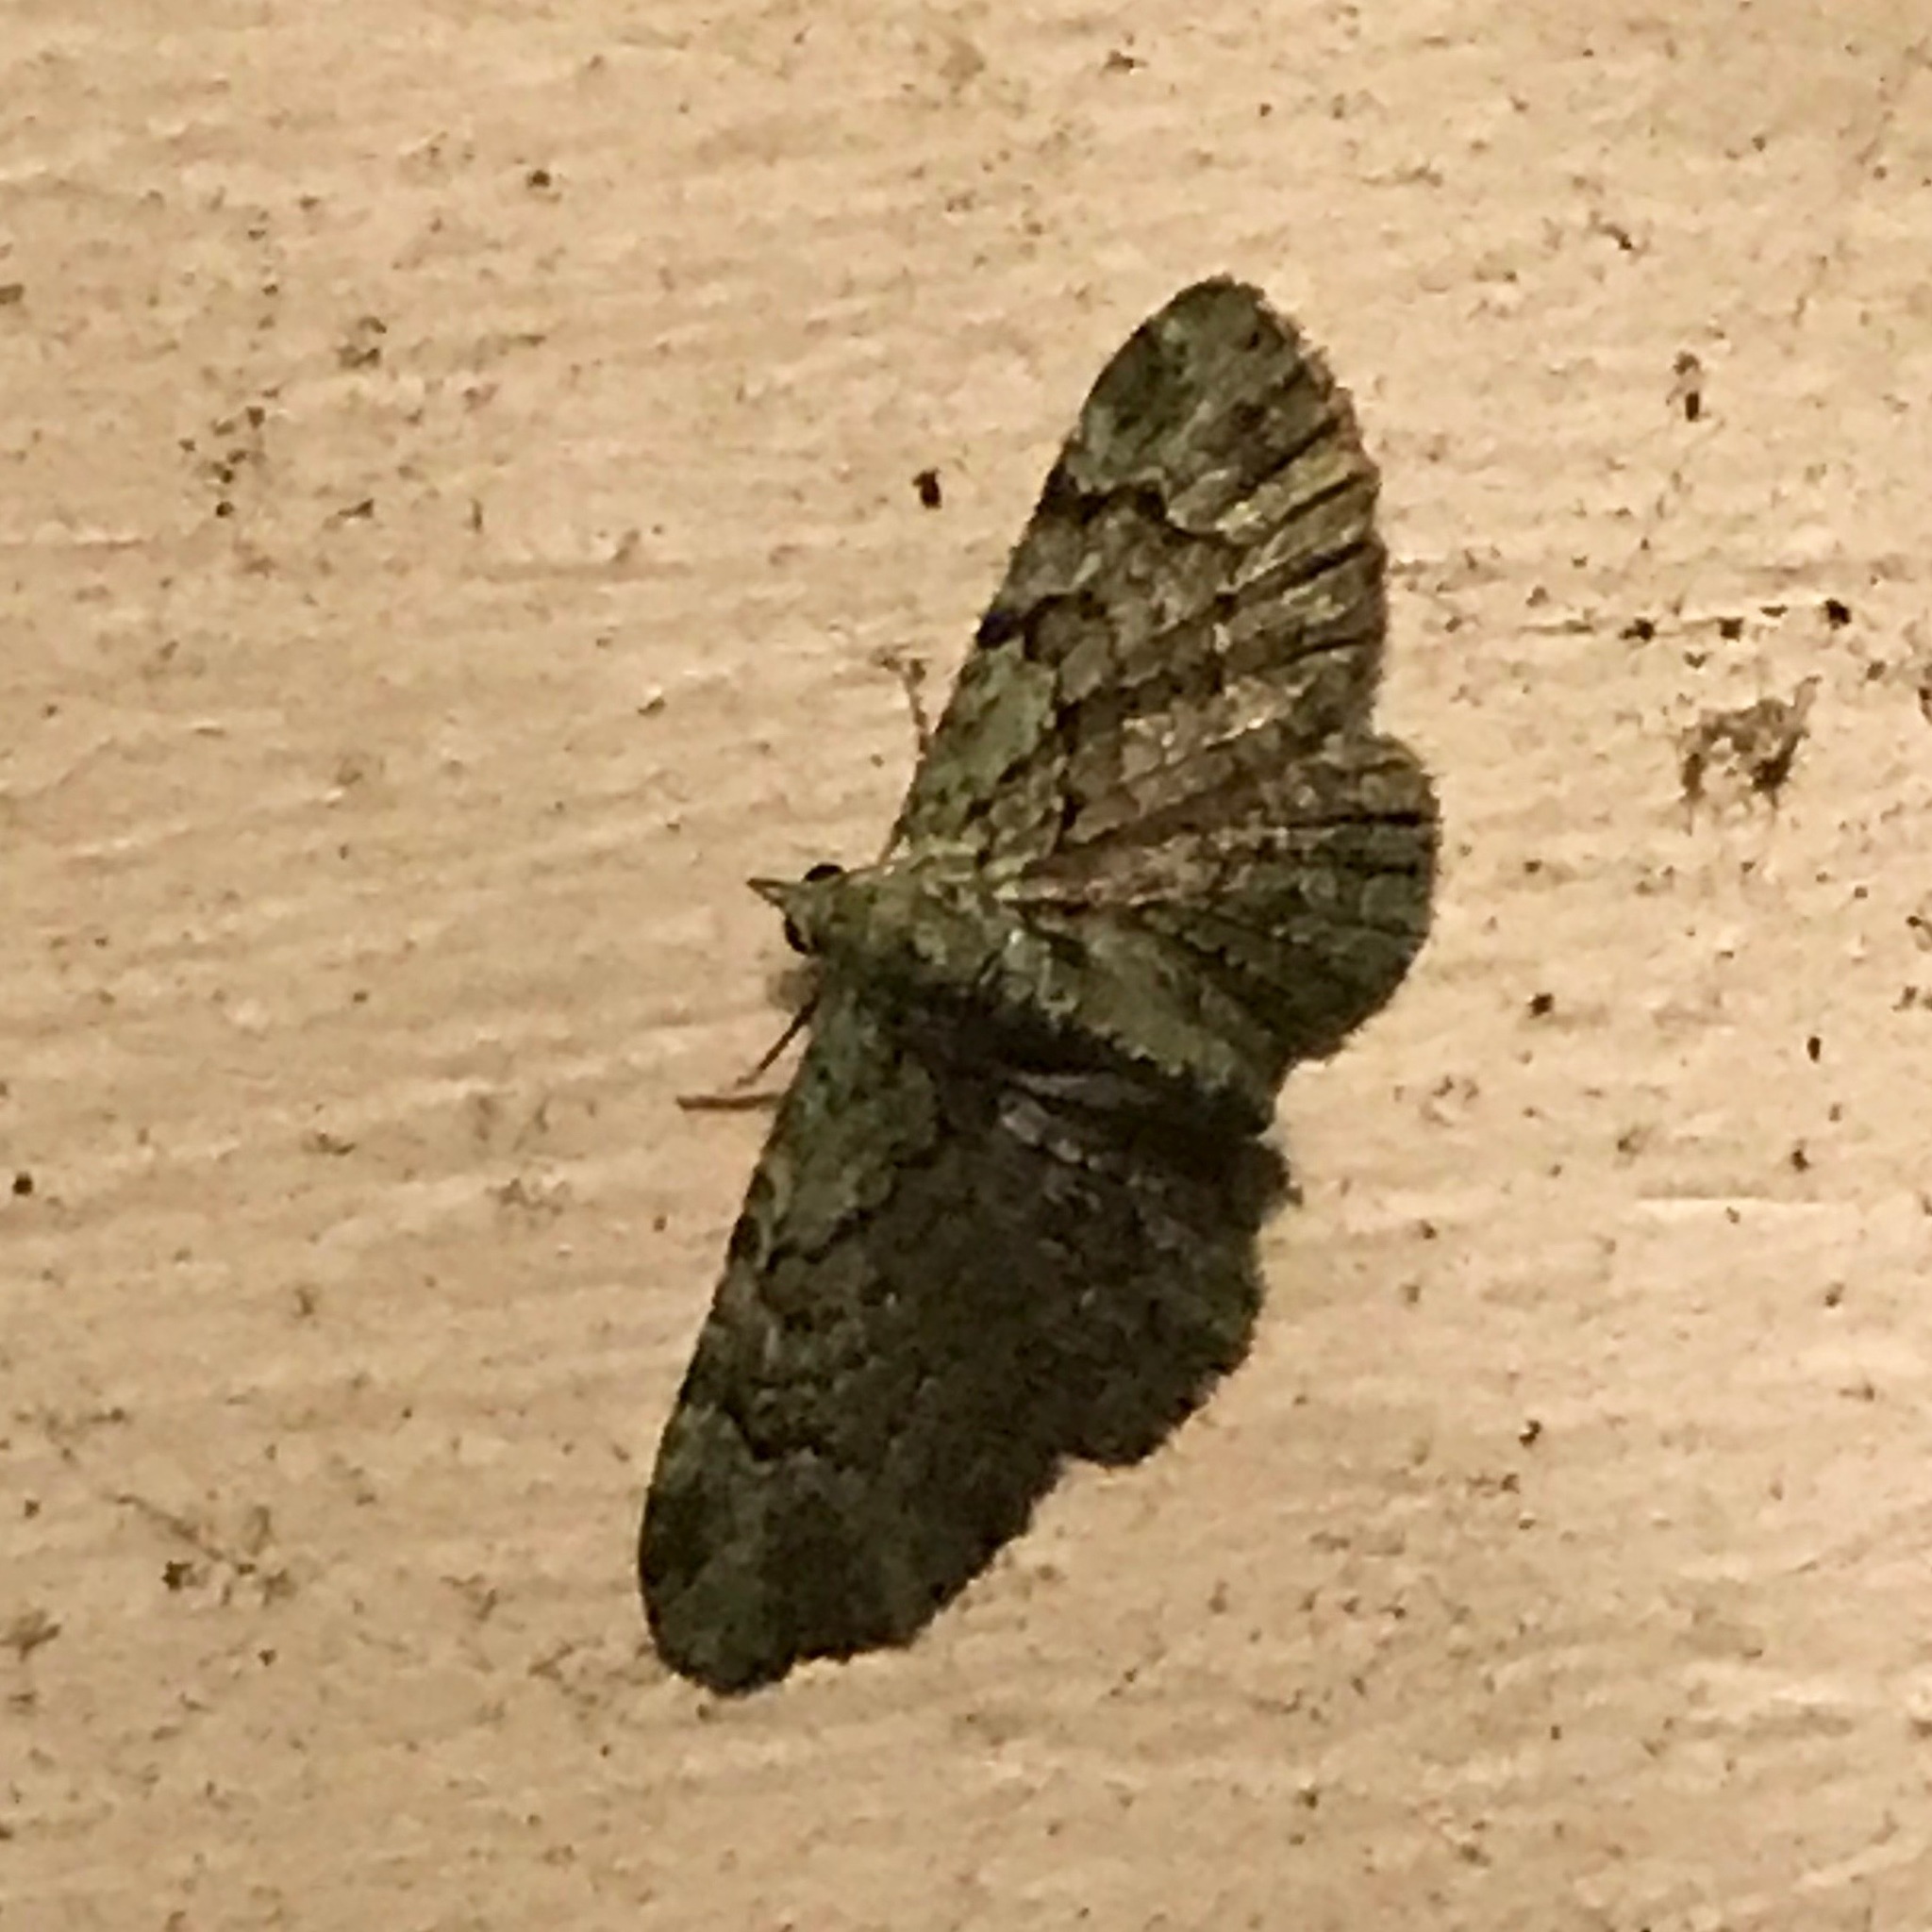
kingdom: Animalia
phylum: Arthropoda
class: Insecta
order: Lepidoptera
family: Geometridae
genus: Pasiphila
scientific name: Pasiphila rectangulata
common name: Green pug
